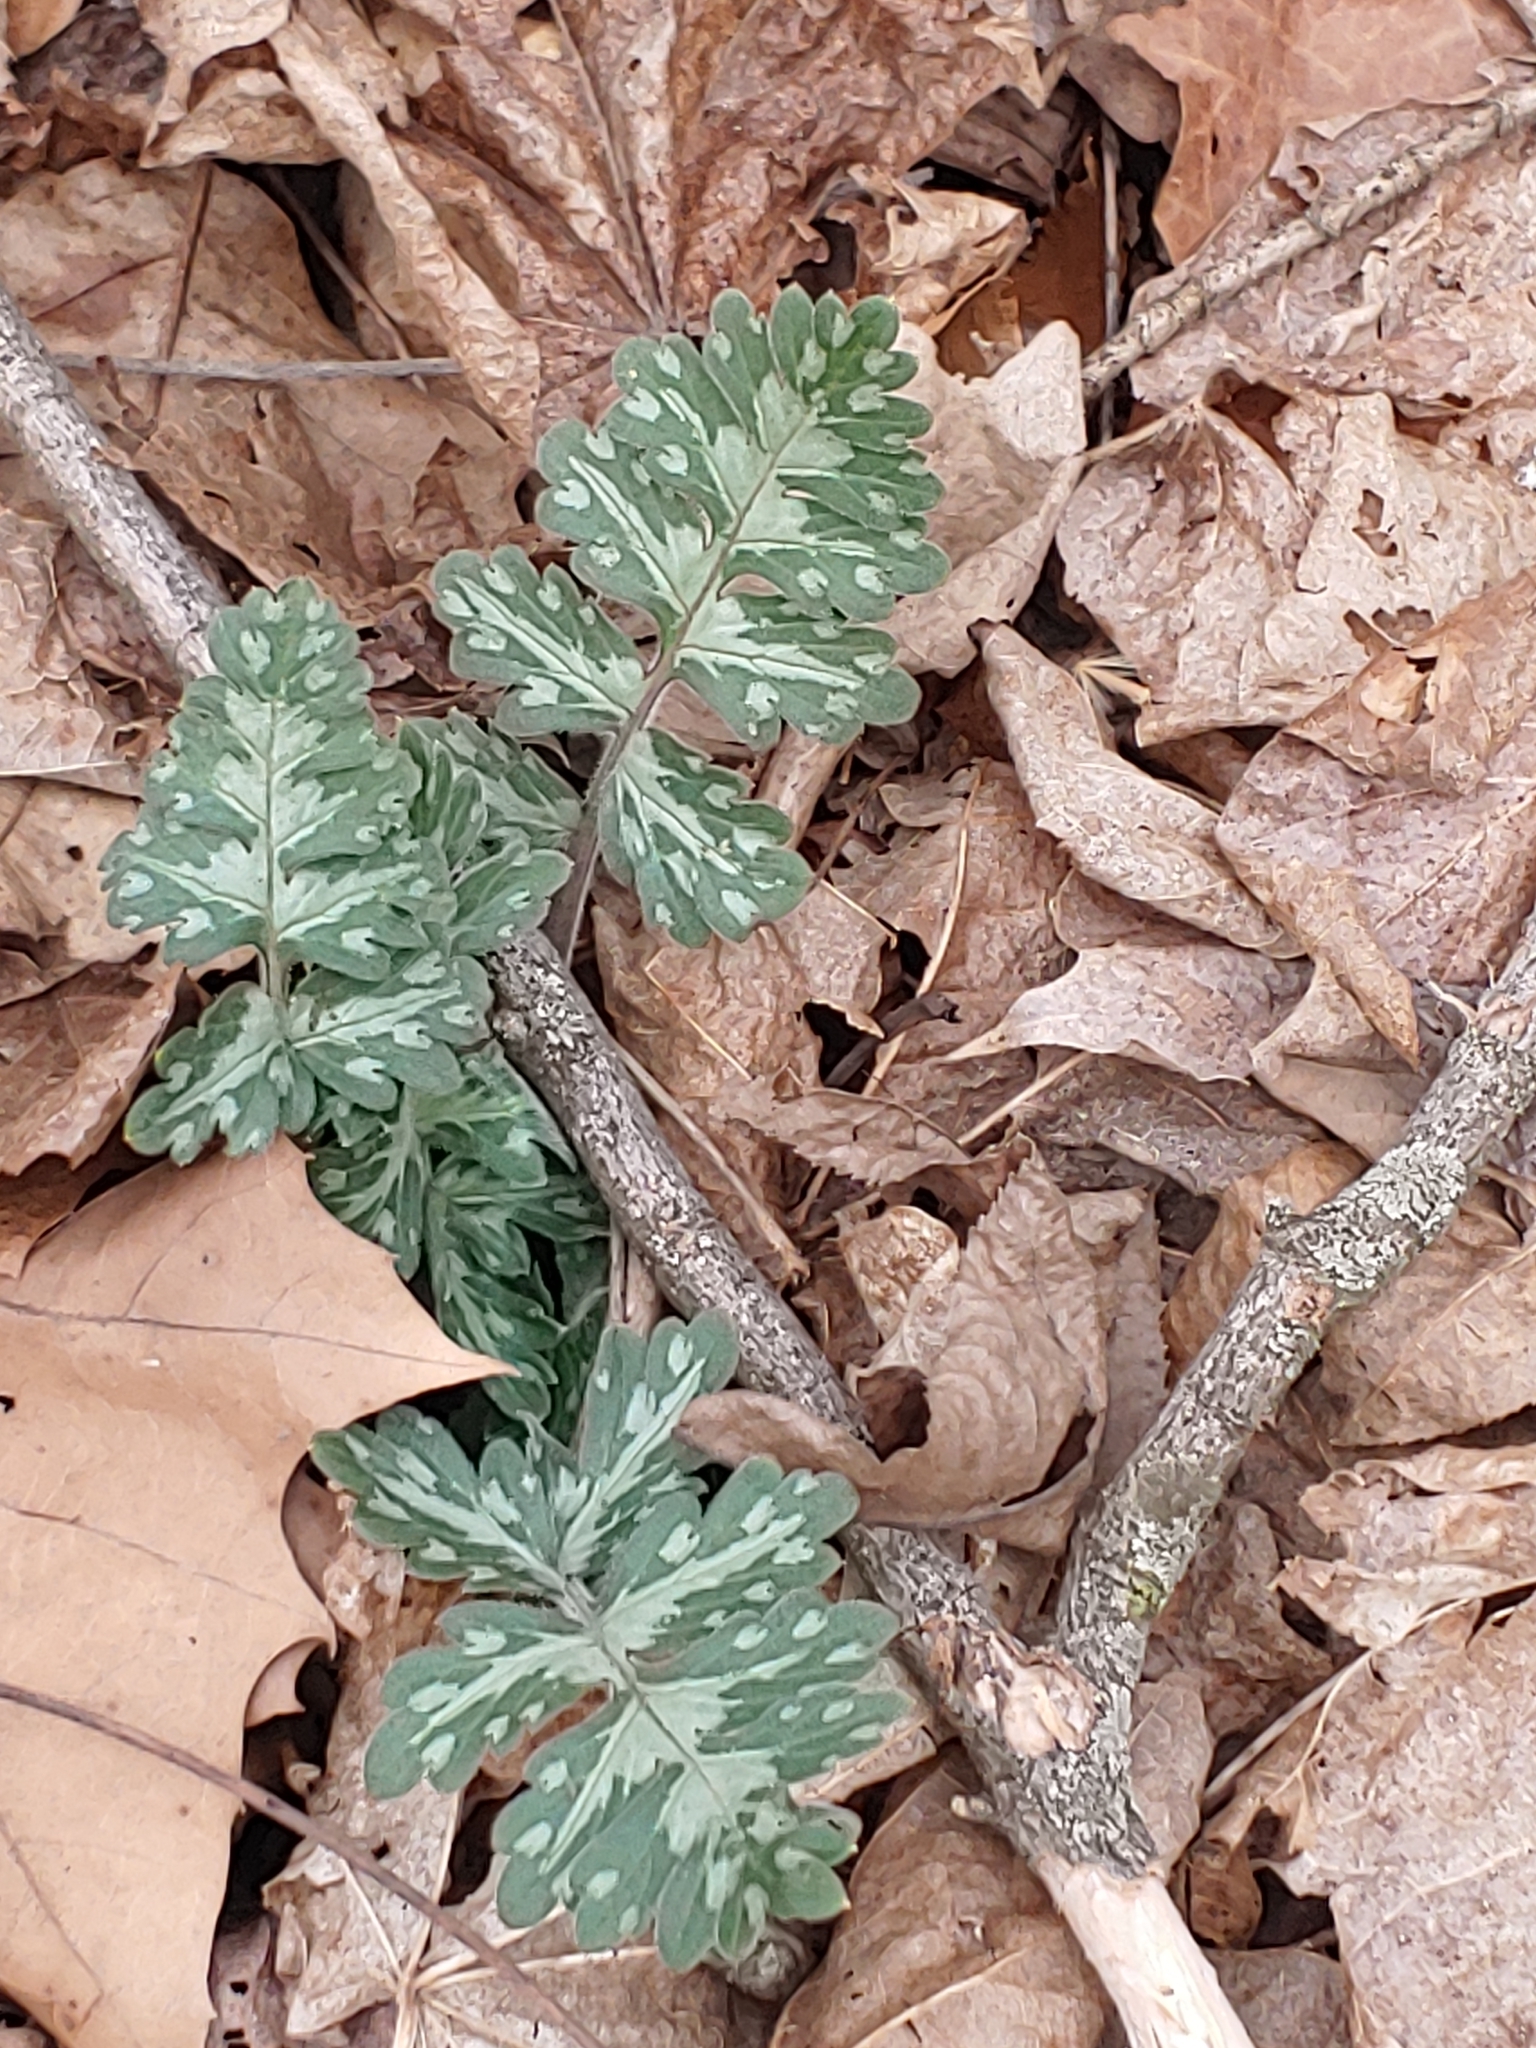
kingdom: Plantae
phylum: Tracheophyta
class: Magnoliopsida
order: Boraginales
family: Hydrophyllaceae
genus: Hydrophyllum
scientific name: Hydrophyllum macrophyllum
